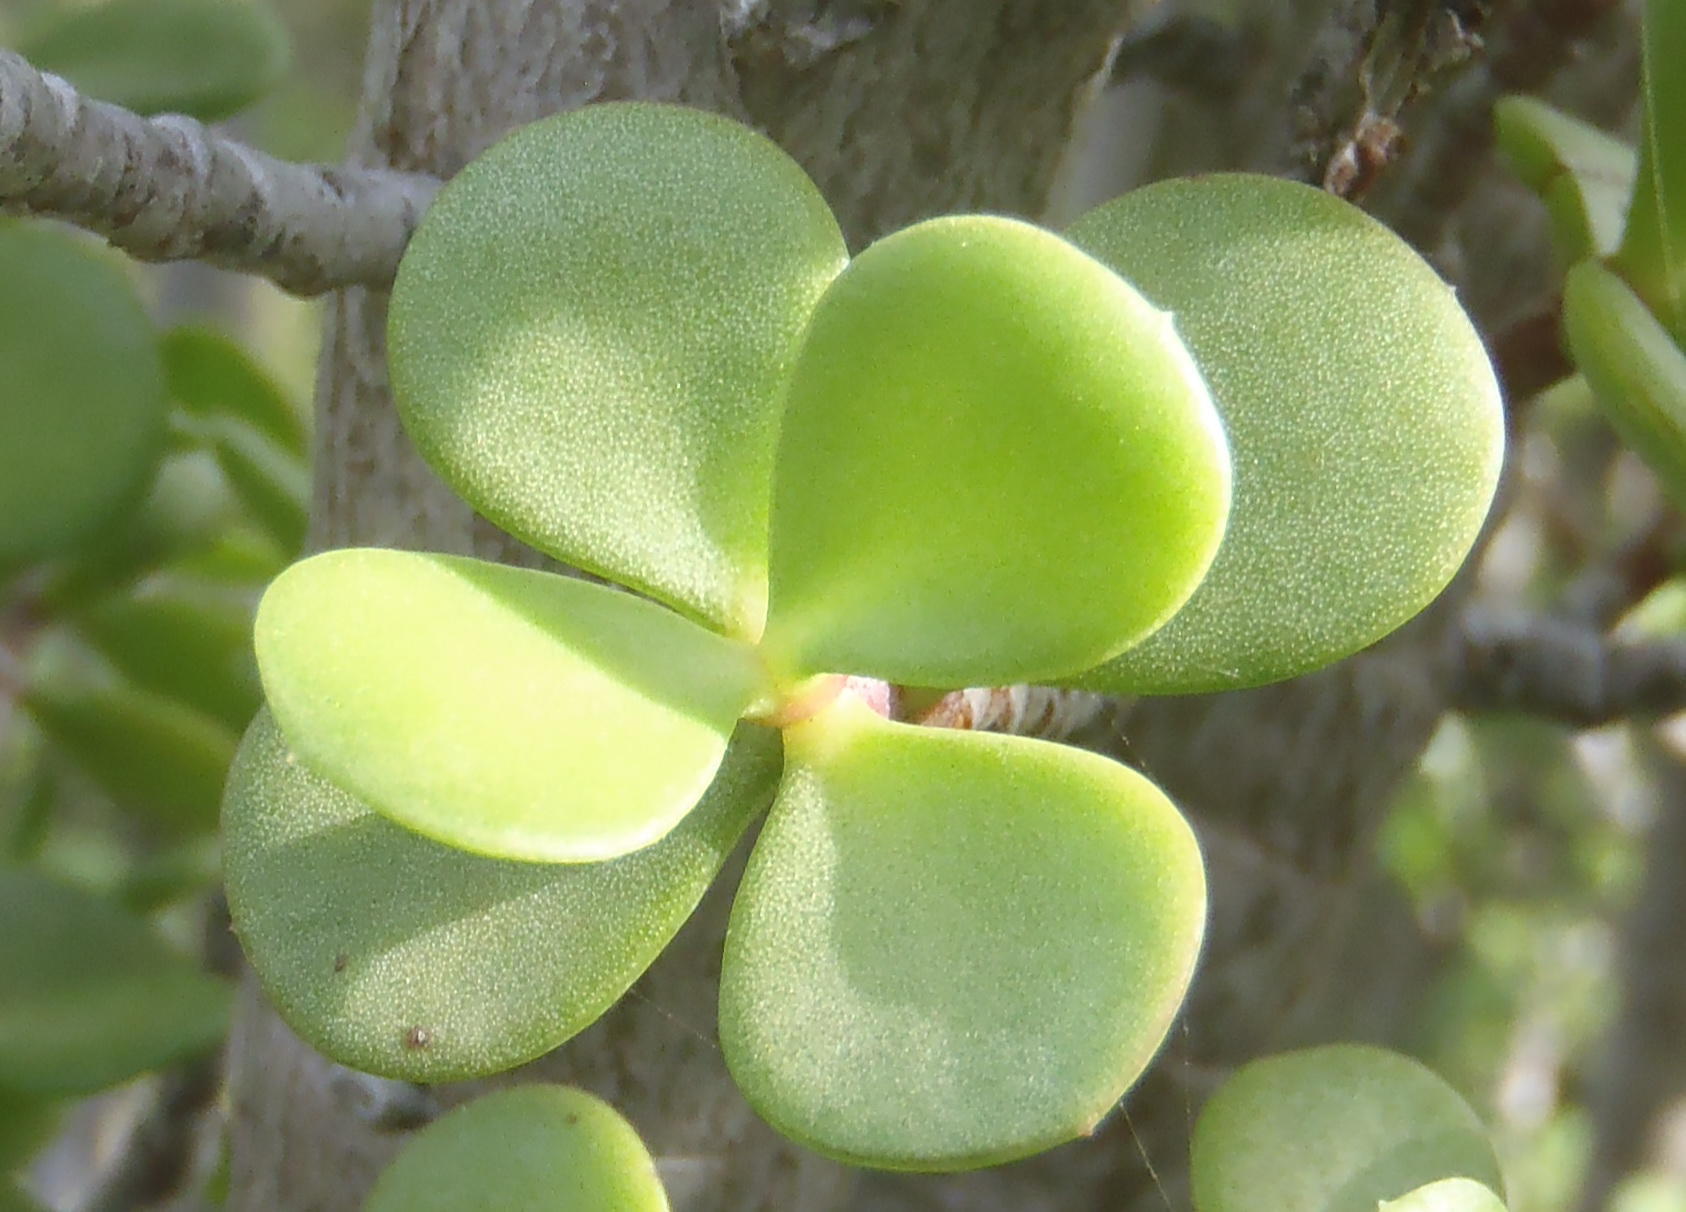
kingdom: Plantae
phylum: Tracheophyta
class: Magnoliopsida
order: Caryophyllales
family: Didiereaceae
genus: Portulacaria
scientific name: Portulacaria afra
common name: Elephant-bush
